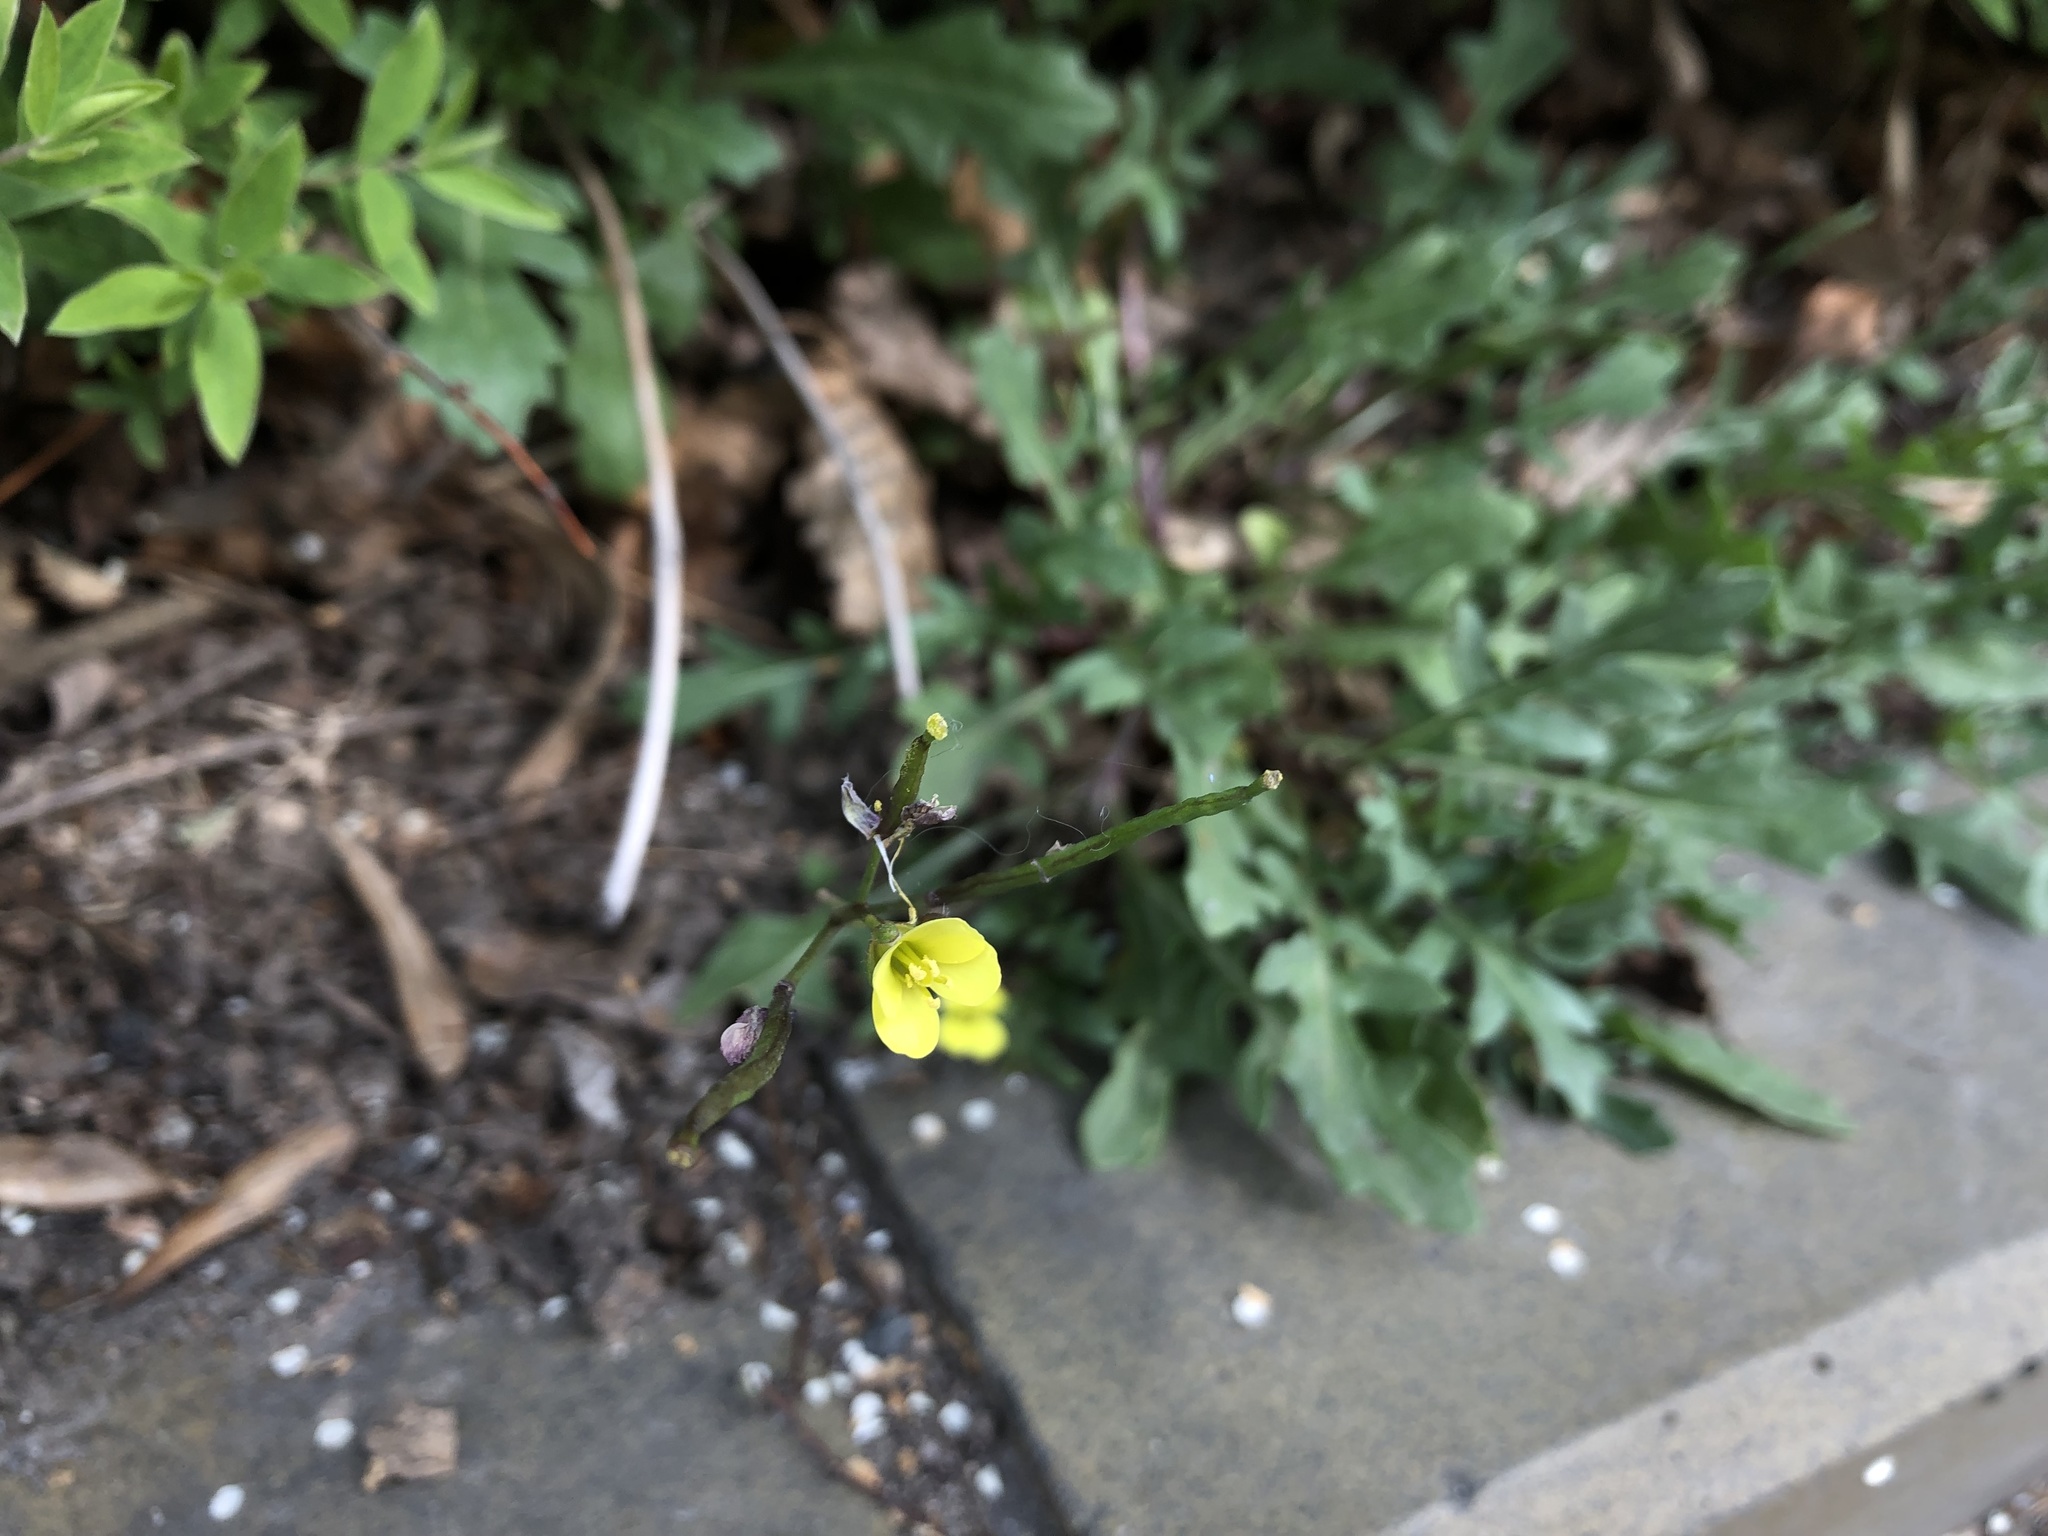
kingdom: Plantae
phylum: Tracheophyta
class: Magnoliopsida
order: Brassicales
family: Brassicaceae
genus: Diplotaxis
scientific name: Diplotaxis tenuifolia
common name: Perennial wall-rocket
